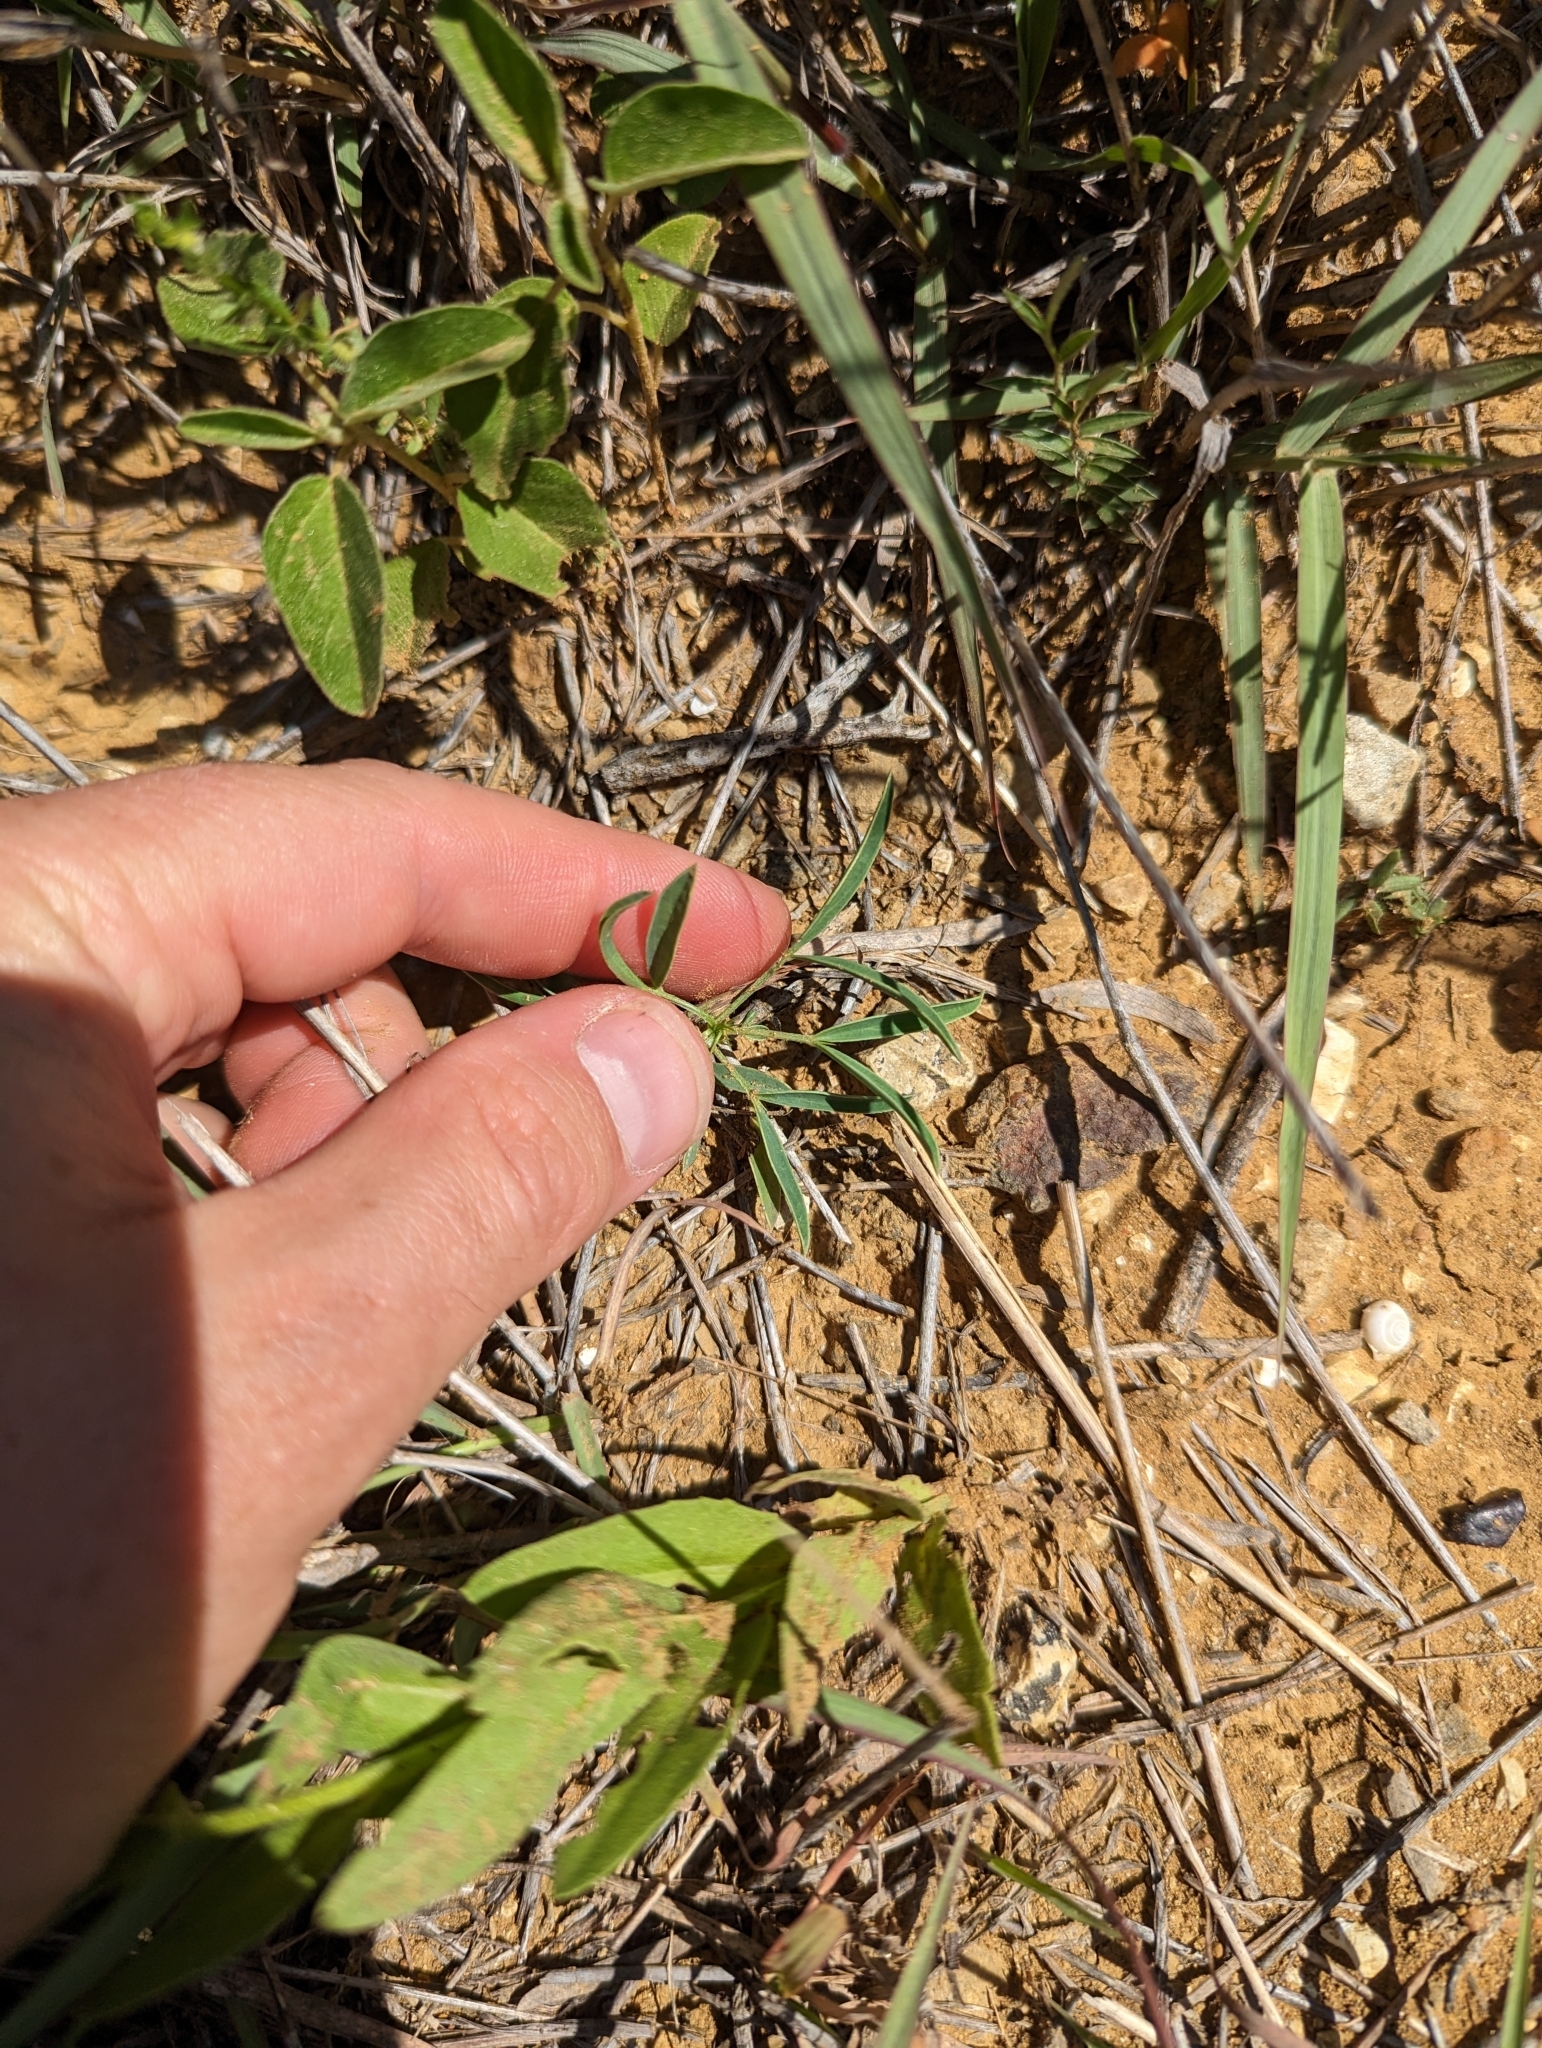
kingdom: Plantae
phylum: Tracheophyta
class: Magnoliopsida
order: Fabales
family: Fabaceae
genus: Senna
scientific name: Senna pumilio
